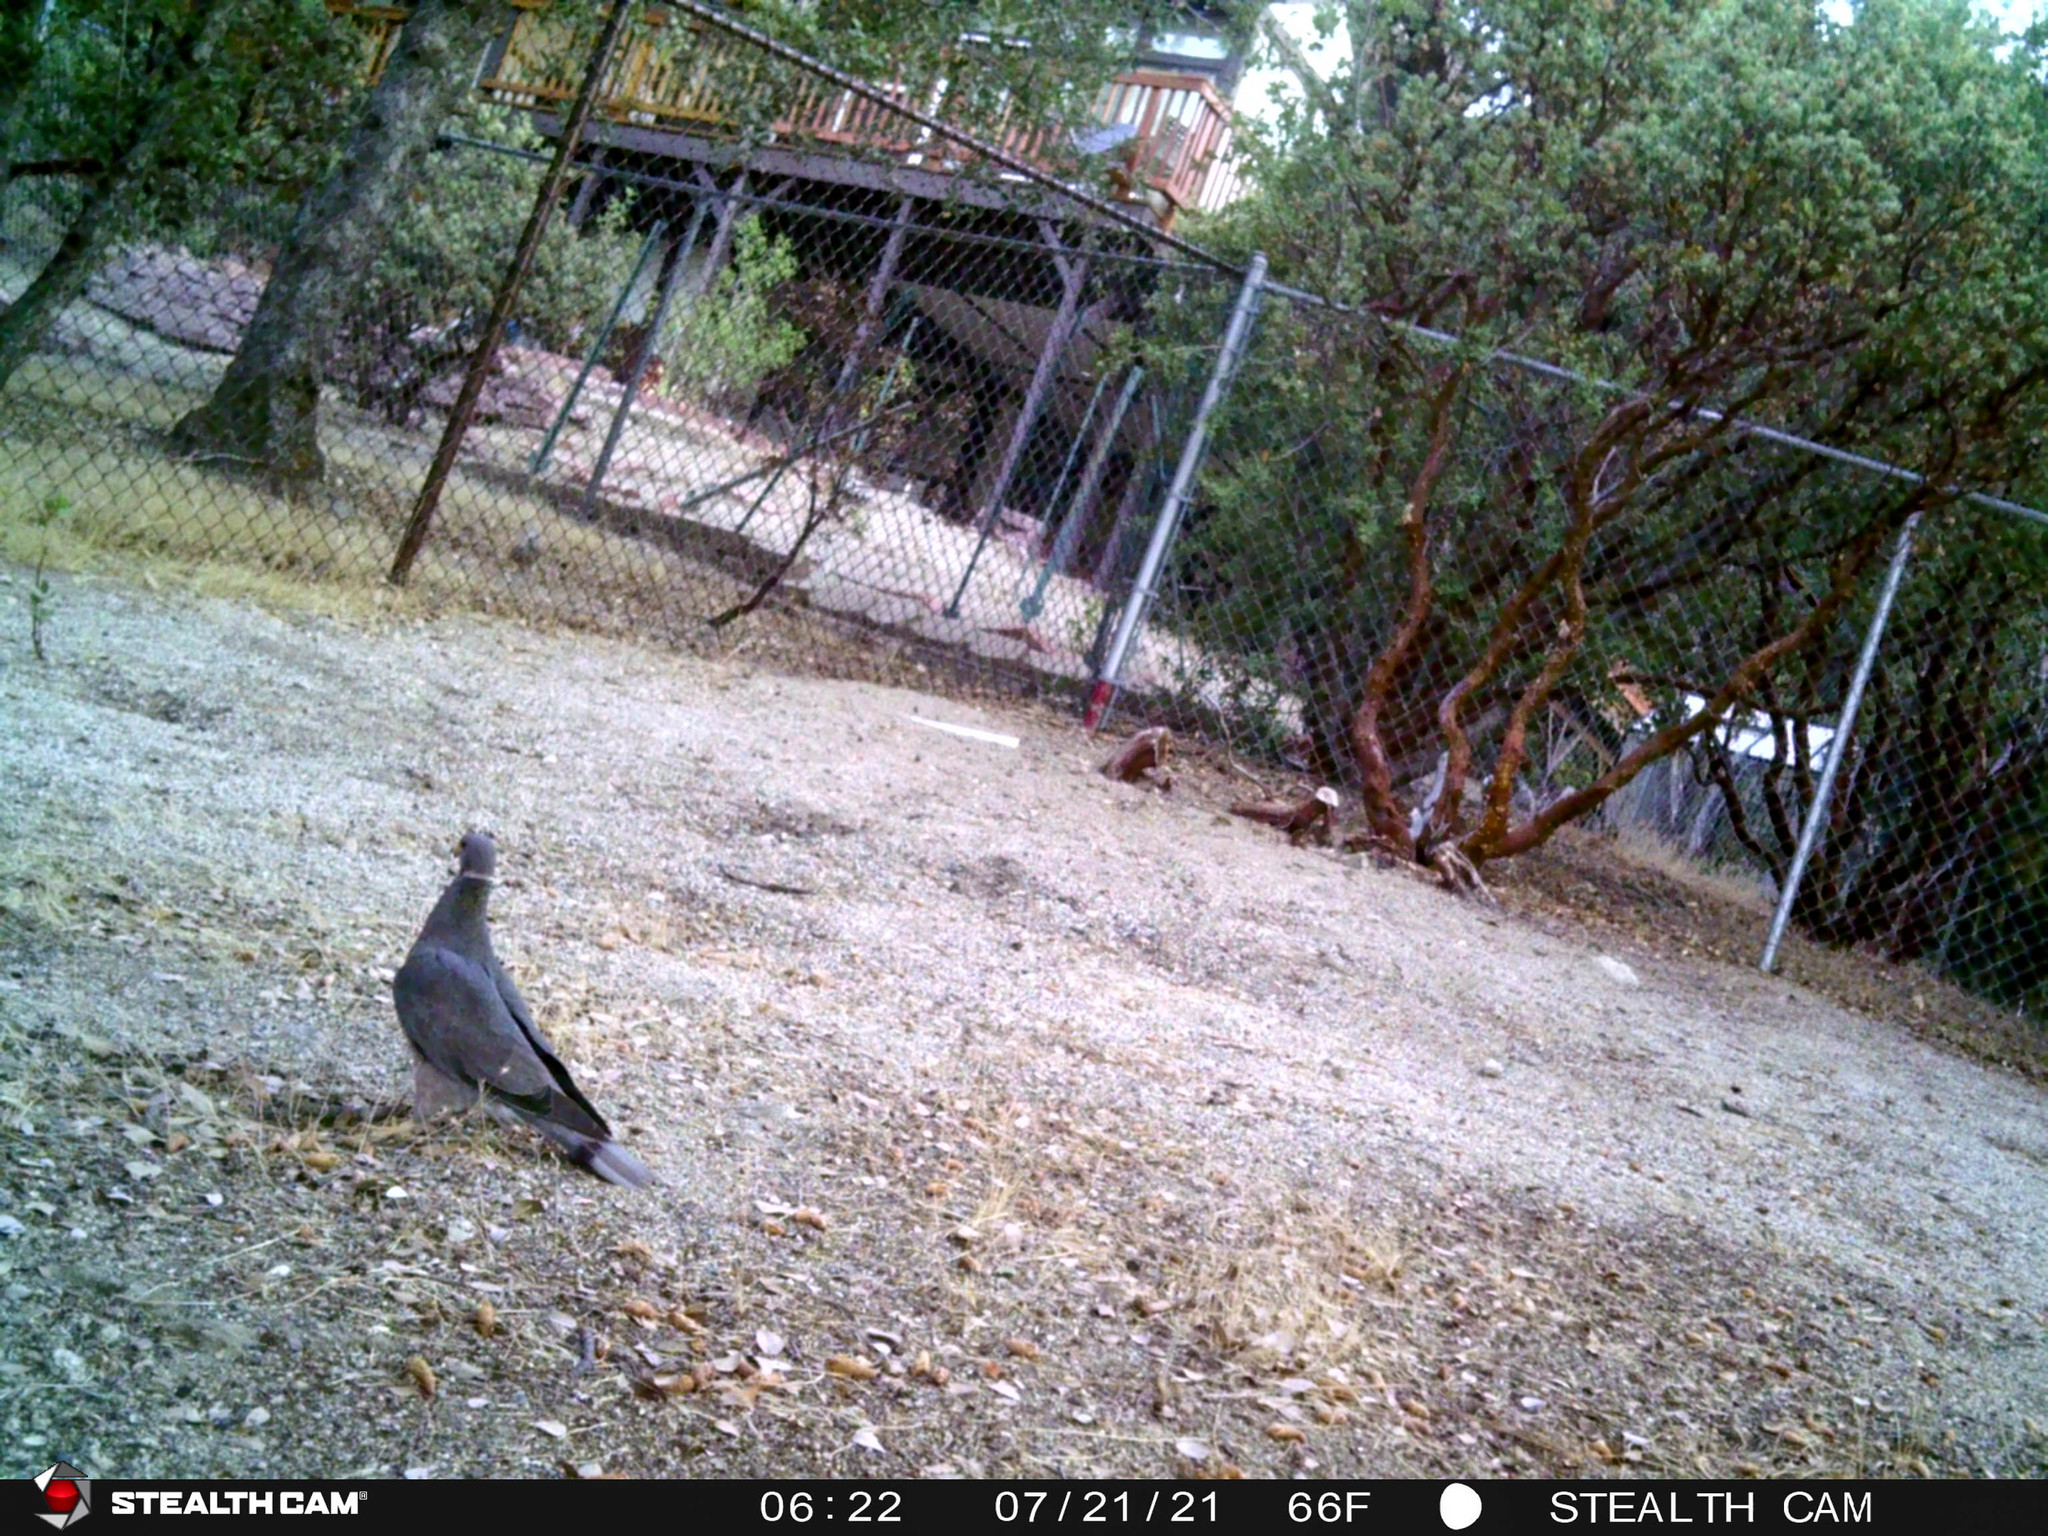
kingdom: Animalia
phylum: Chordata
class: Aves
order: Columbiformes
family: Columbidae
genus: Patagioenas
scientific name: Patagioenas fasciata
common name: Band-tailed pigeon
